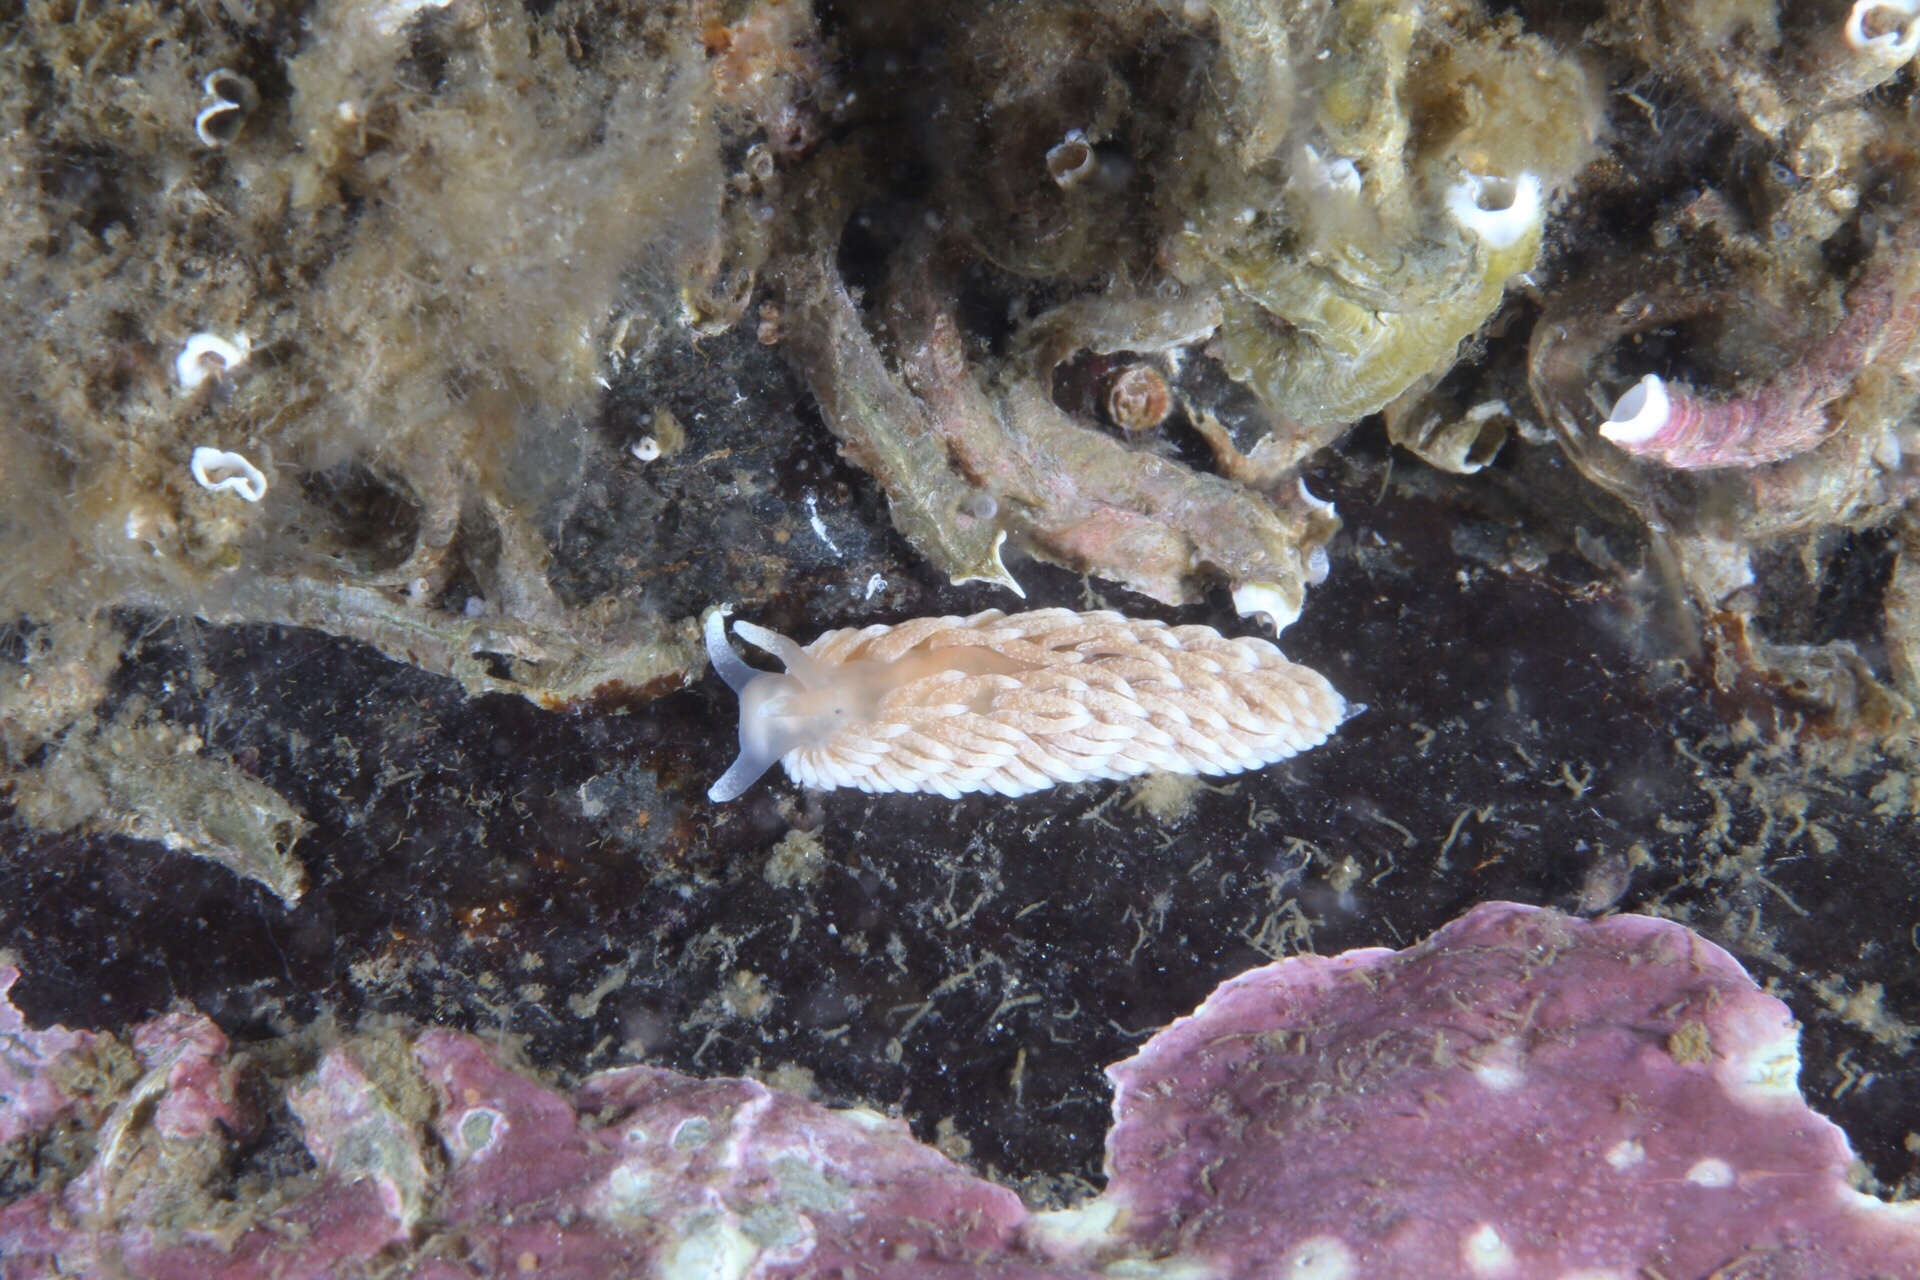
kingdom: Animalia
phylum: Mollusca
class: Gastropoda
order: Nudibranchia
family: Aeolidiidae
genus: Aeolidiella
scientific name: Aeolidiella glauca
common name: Orange-brown aeolid
